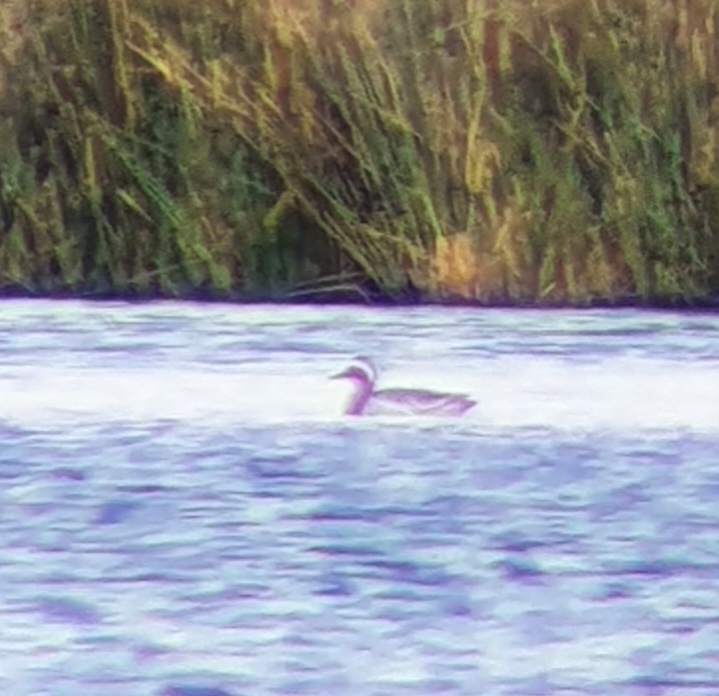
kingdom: Animalia
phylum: Chordata
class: Aves
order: Anseriformes
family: Anatidae
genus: Spatula
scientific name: Spatula querquedula
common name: Garganey
